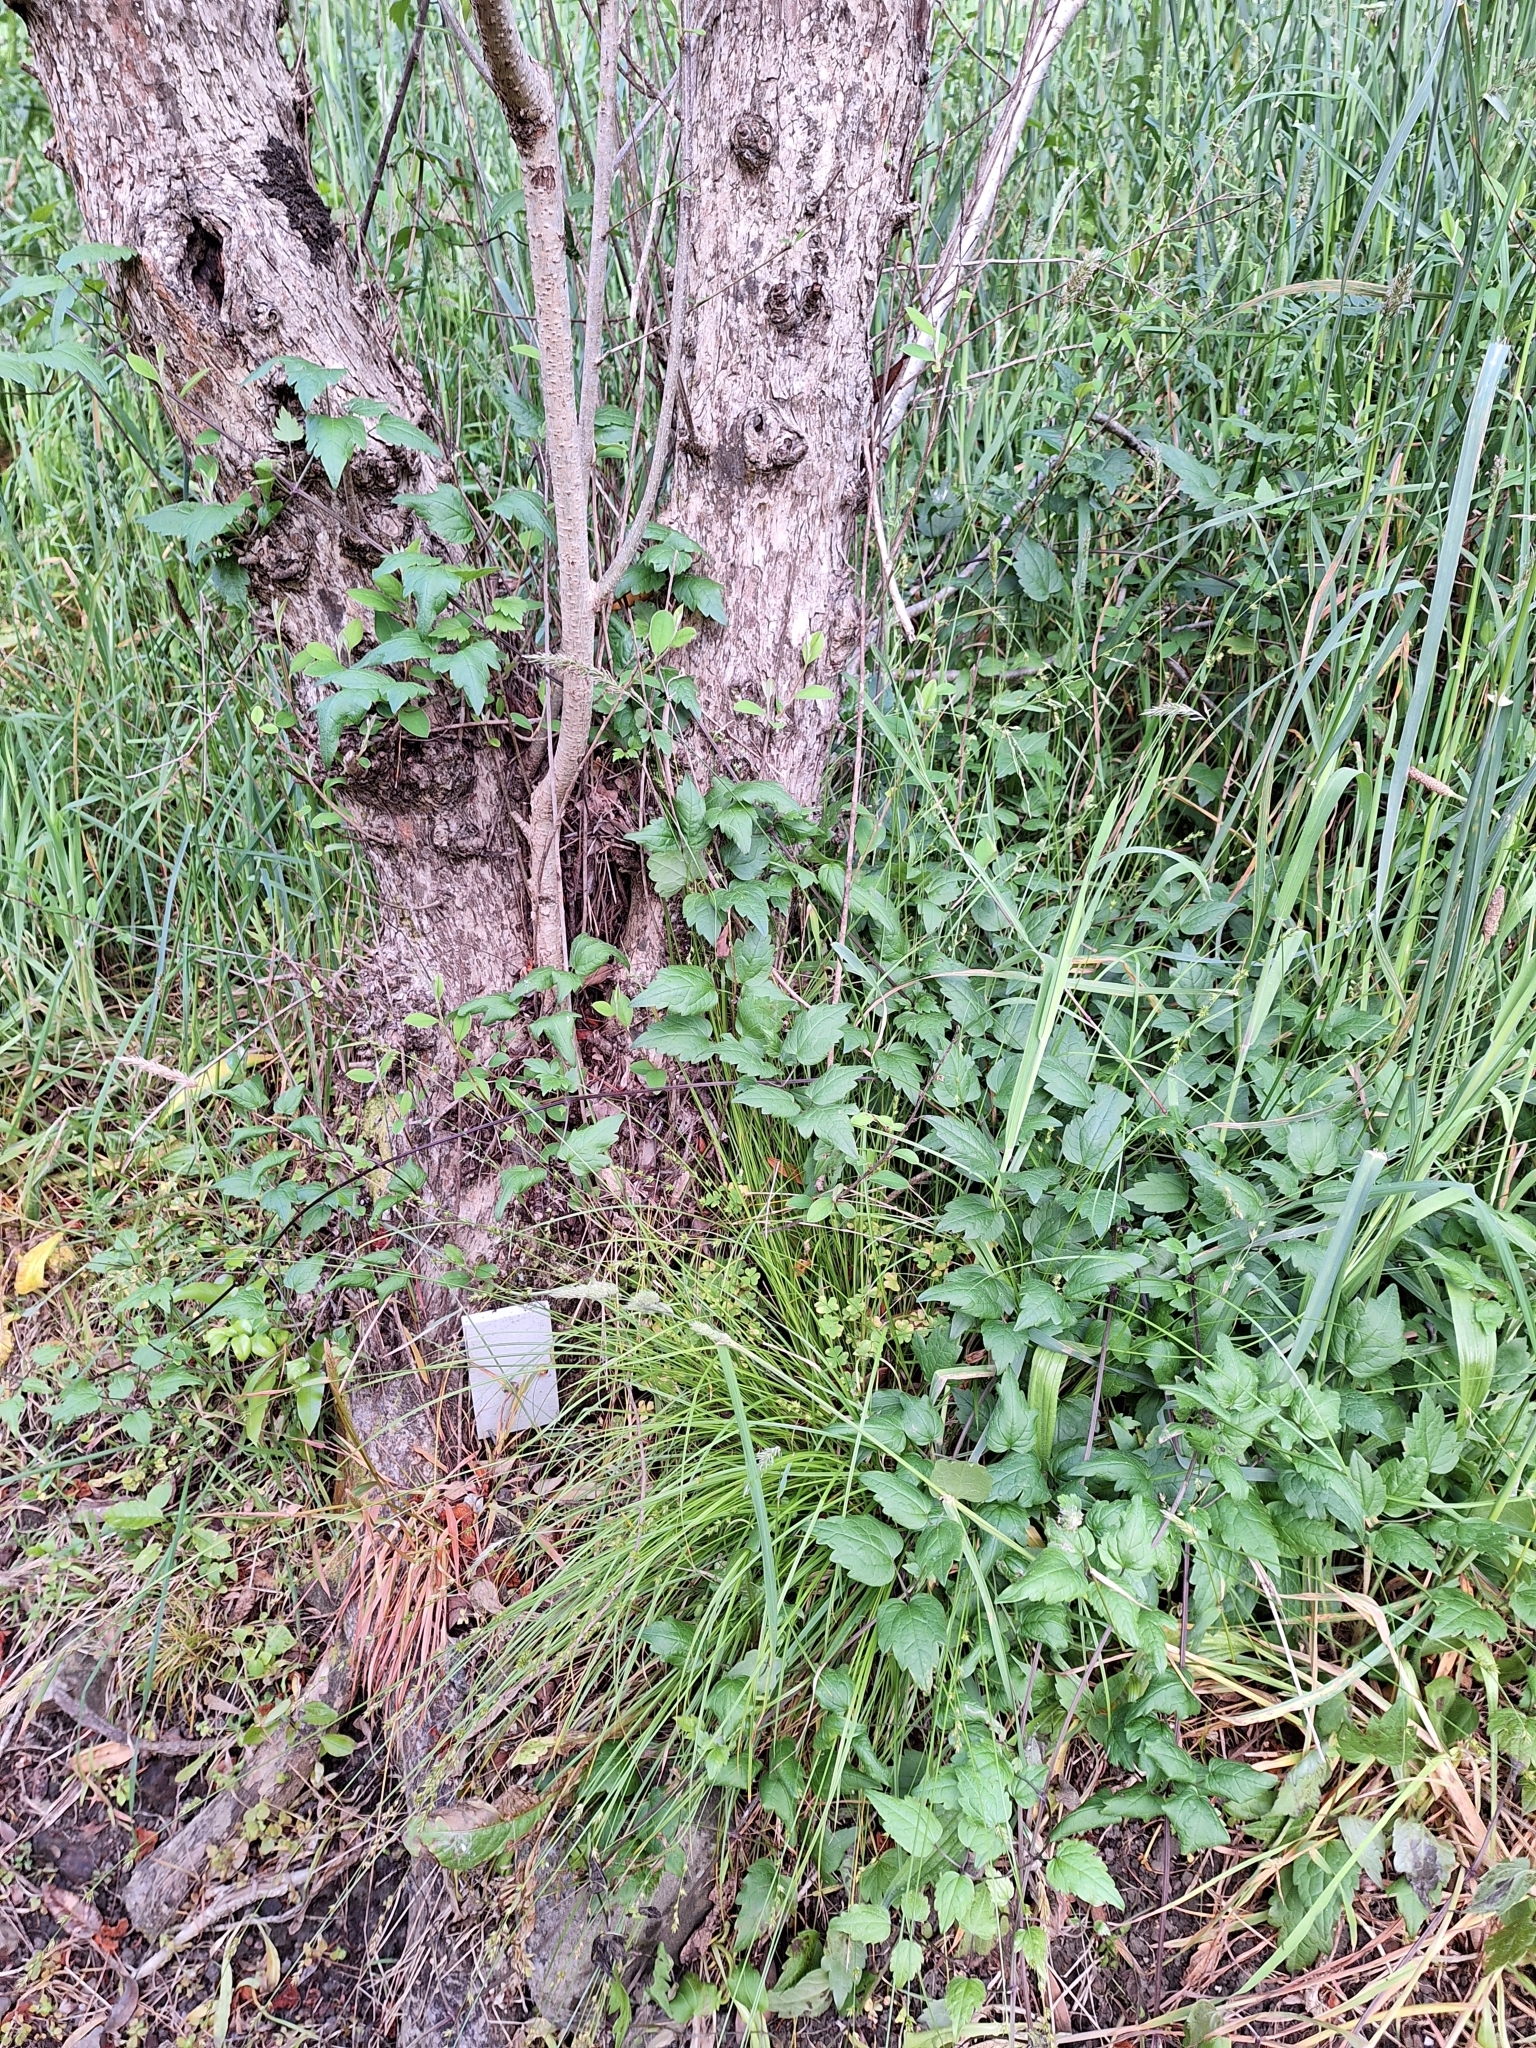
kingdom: Plantae
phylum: Tracheophyta
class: Magnoliopsida
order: Ranunculales
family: Ranunculaceae
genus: Clematis
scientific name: Clematis vitalba
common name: Evergreen clematis
